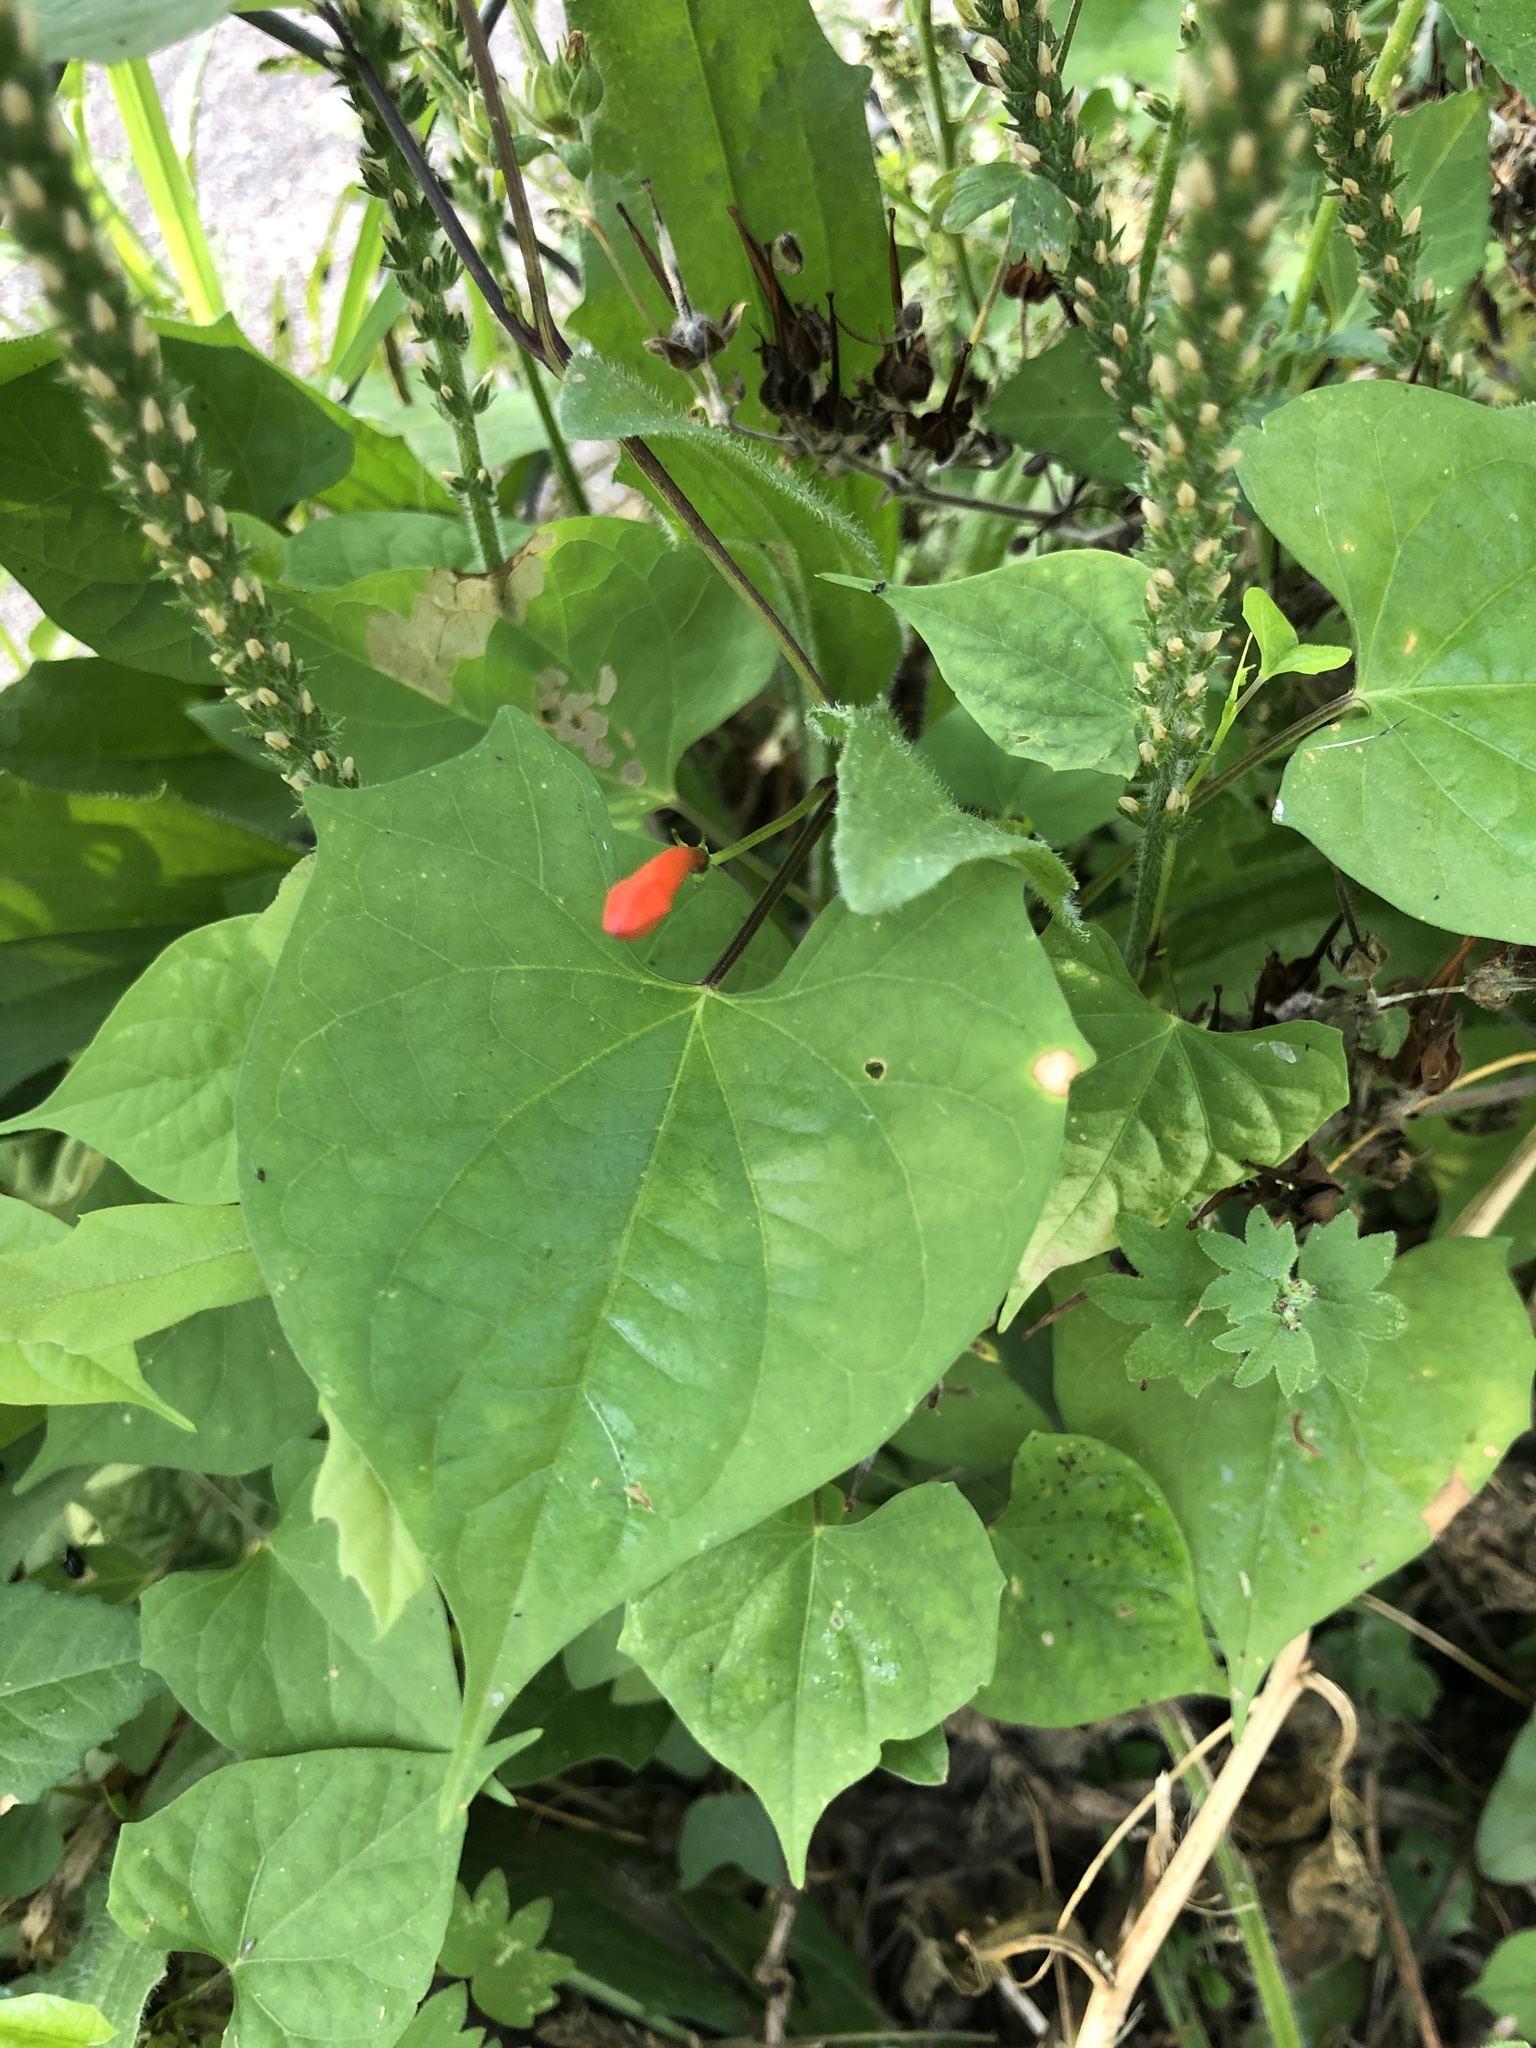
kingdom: Plantae
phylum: Tracheophyta
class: Magnoliopsida
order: Solanales
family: Convolvulaceae
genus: Ipomoea
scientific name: Ipomoea hederifolia
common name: Ivy-leaf morning-glory
